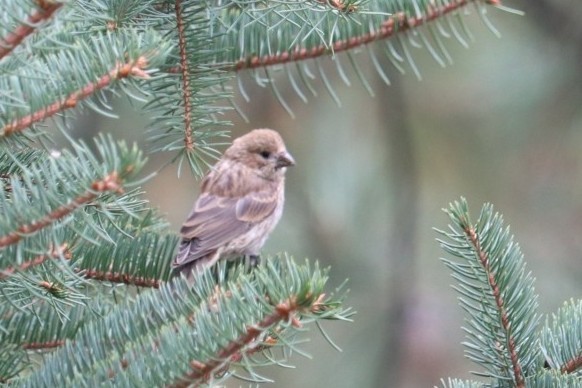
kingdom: Animalia
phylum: Chordata
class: Aves
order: Passeriformes
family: Fringillidae
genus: Haemorhous
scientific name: Haemorhous mexicanus
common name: House finch
